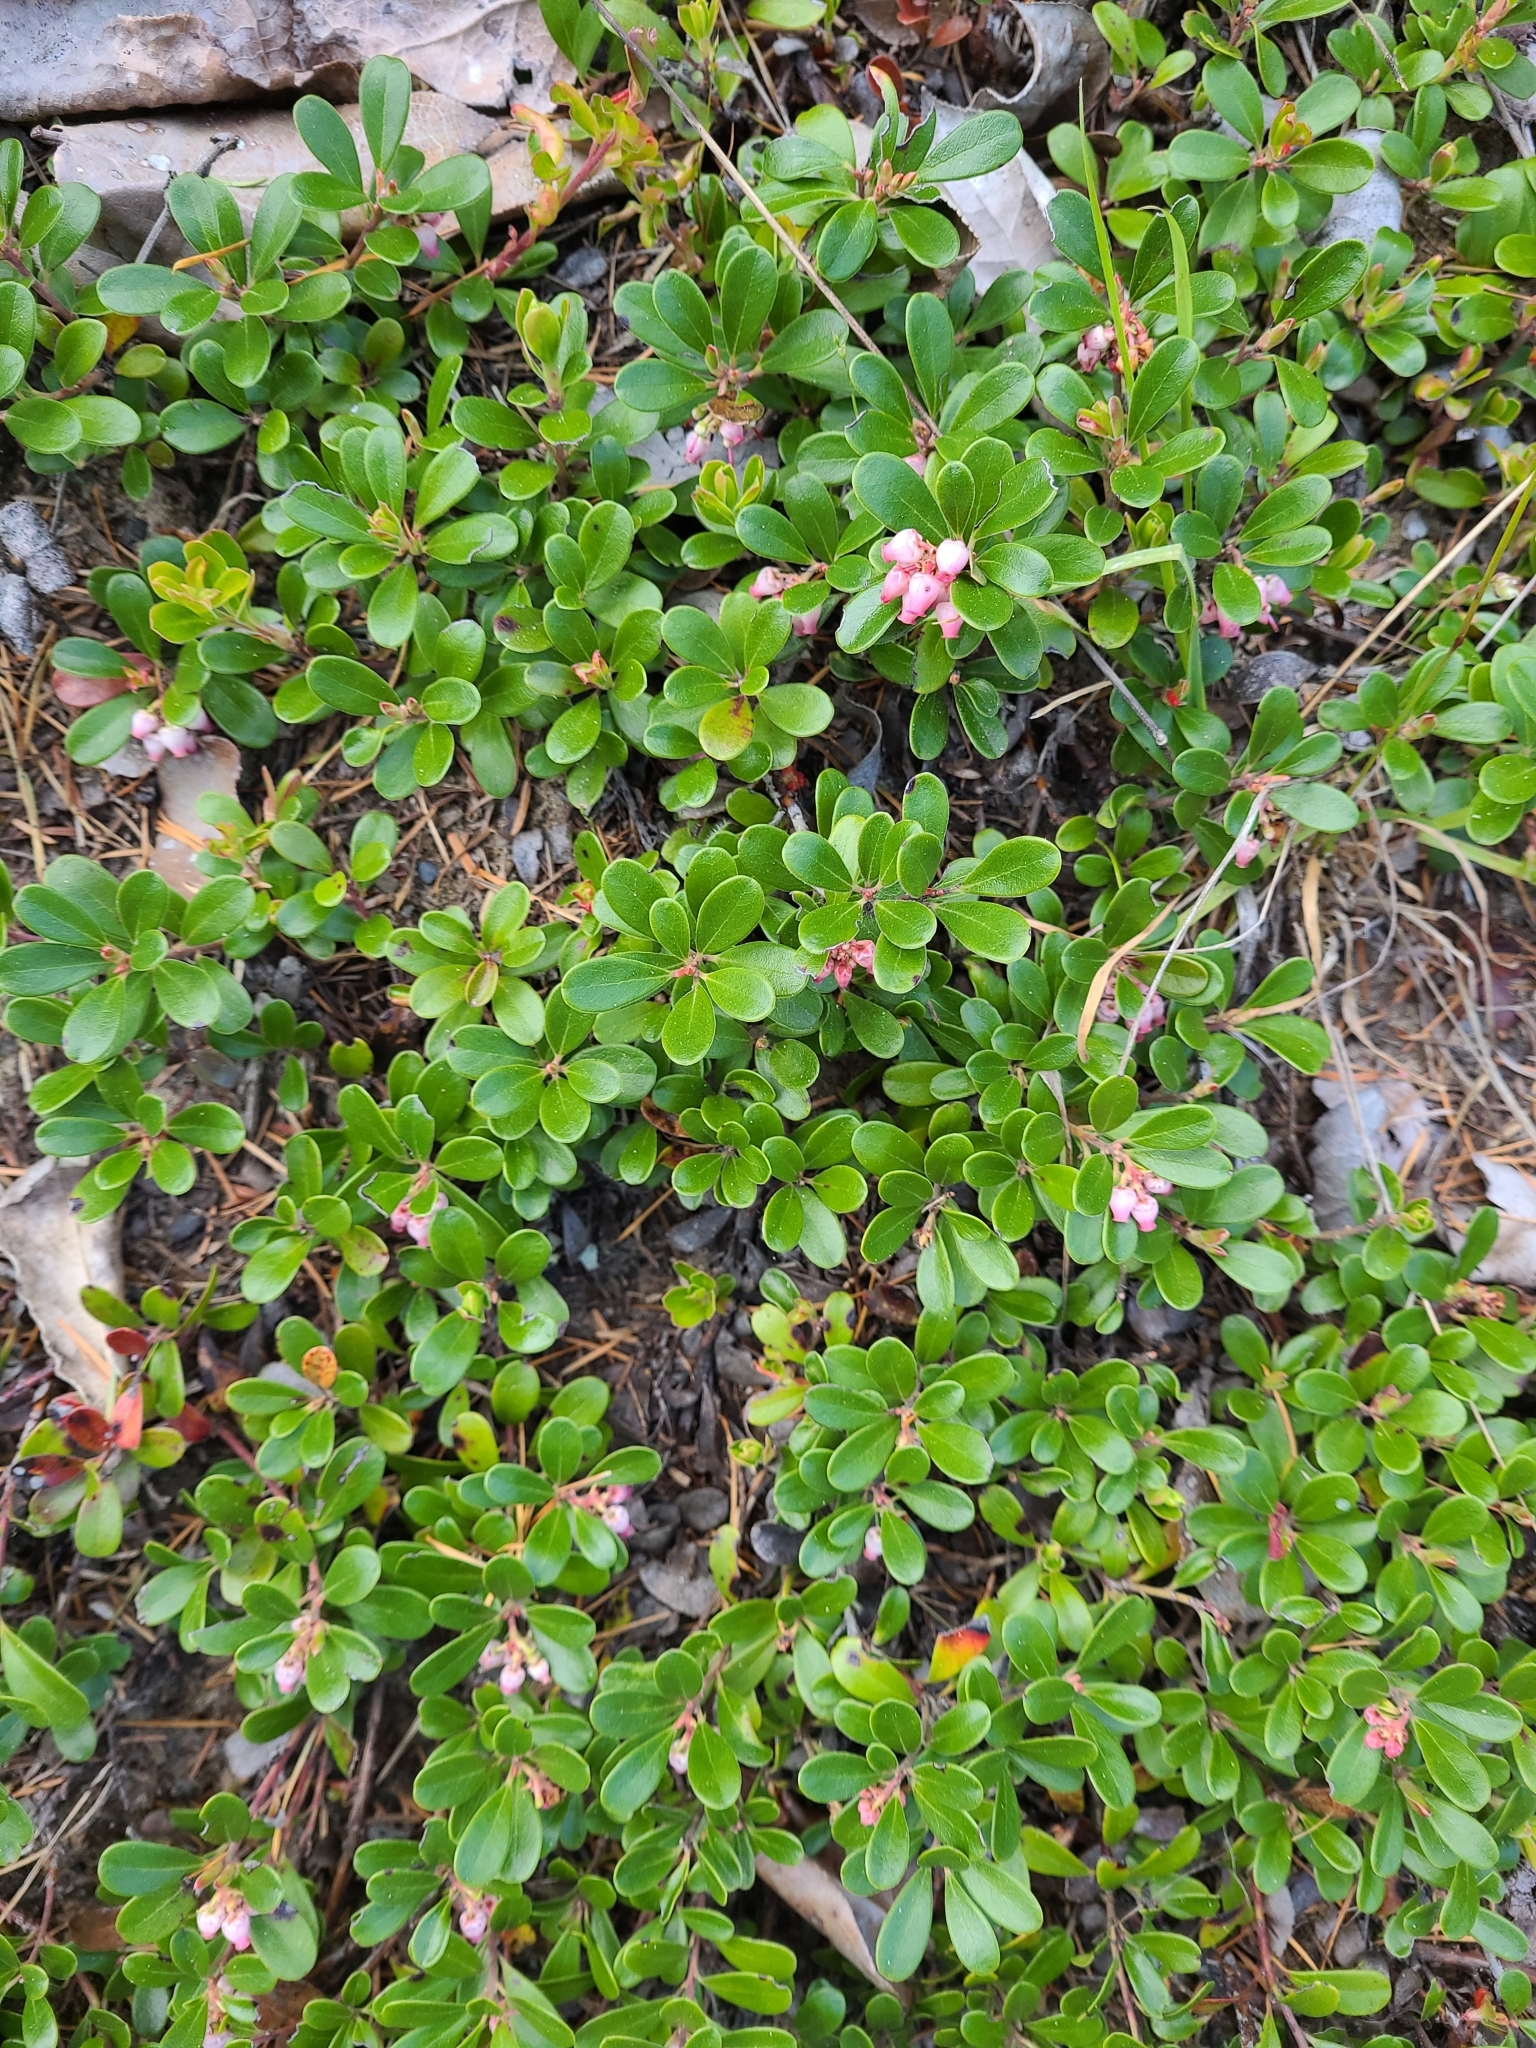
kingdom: Plantae
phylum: Tracheophyta
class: Magnoliopsida
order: Ericales
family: Ericaceae
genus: Arctostaphylos
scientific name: Arctostaphylos uva-ursi
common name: Bearberry
